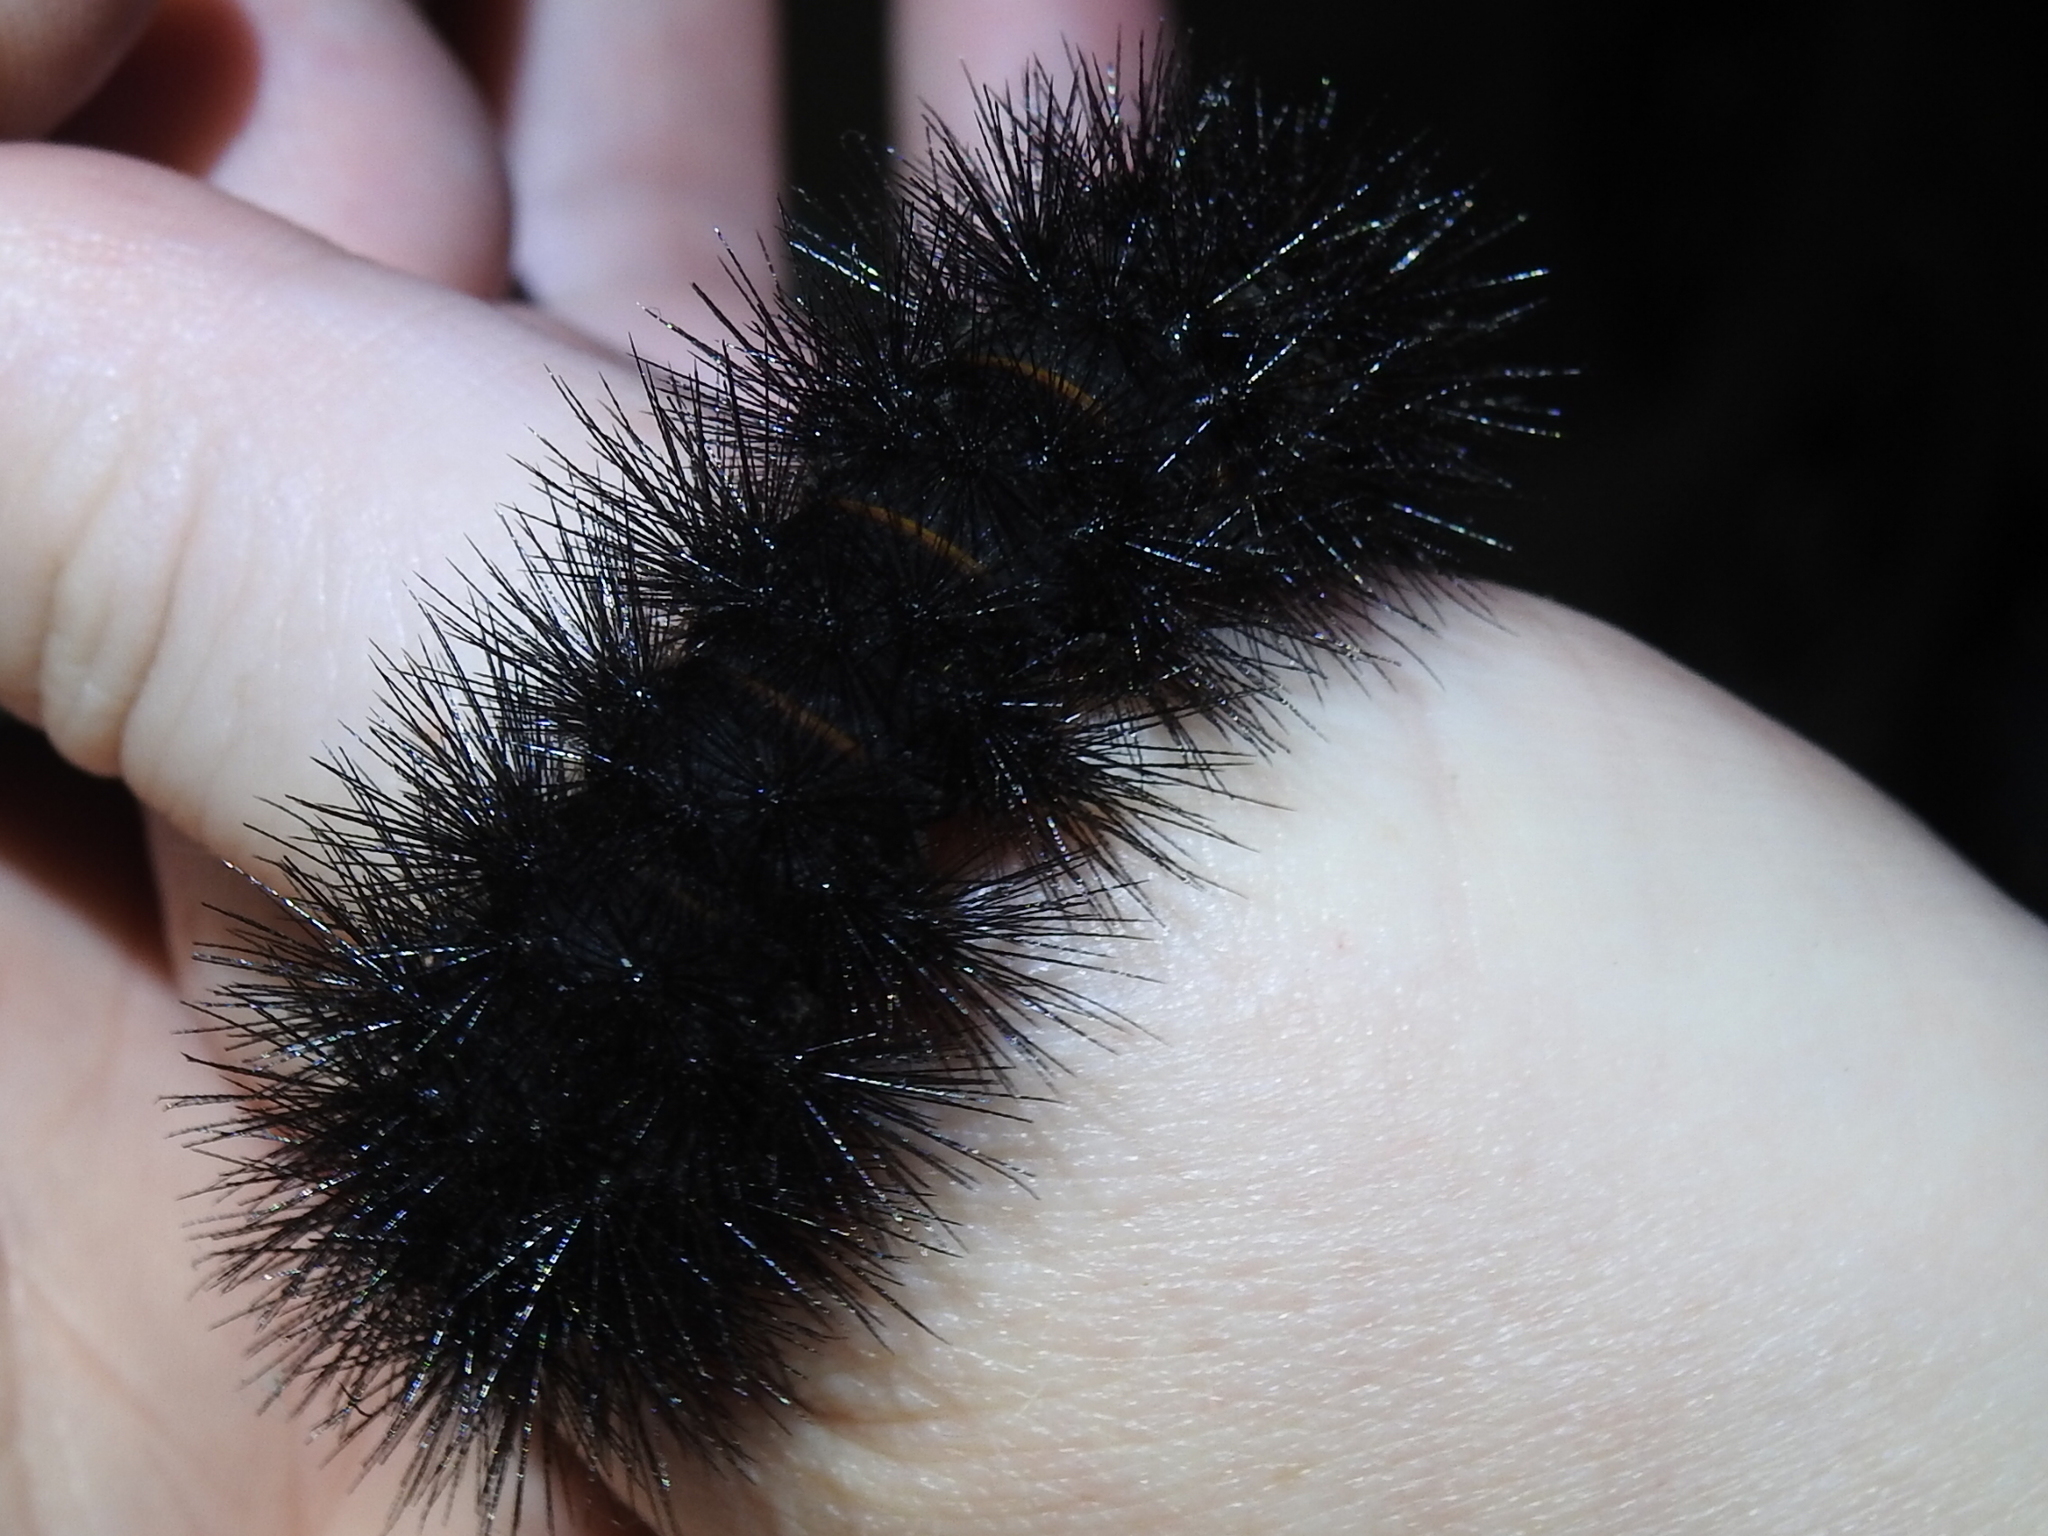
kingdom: Animalia
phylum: Arthropoda
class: Insecta
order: Lepidoptera
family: Erebidae
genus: Hypercompe
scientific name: Hypercompe scribonia
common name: Giant leopard moth
